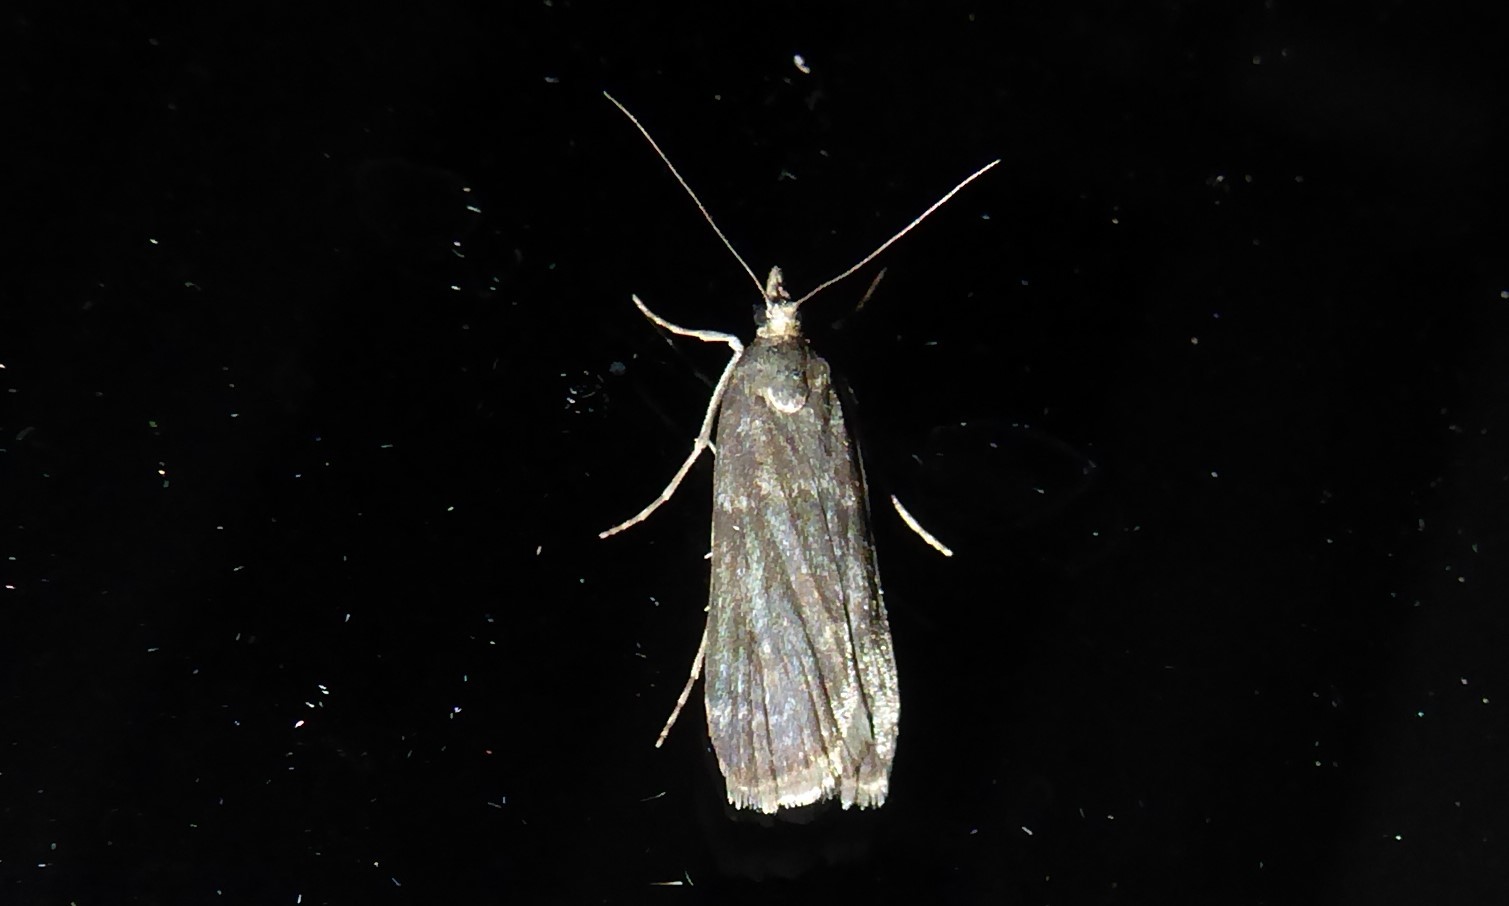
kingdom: Animalia
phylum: Arthropoda
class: Insecta
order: Lepidoptera
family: Crambidae
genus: Eudonia
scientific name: Eudonia cataxesta
